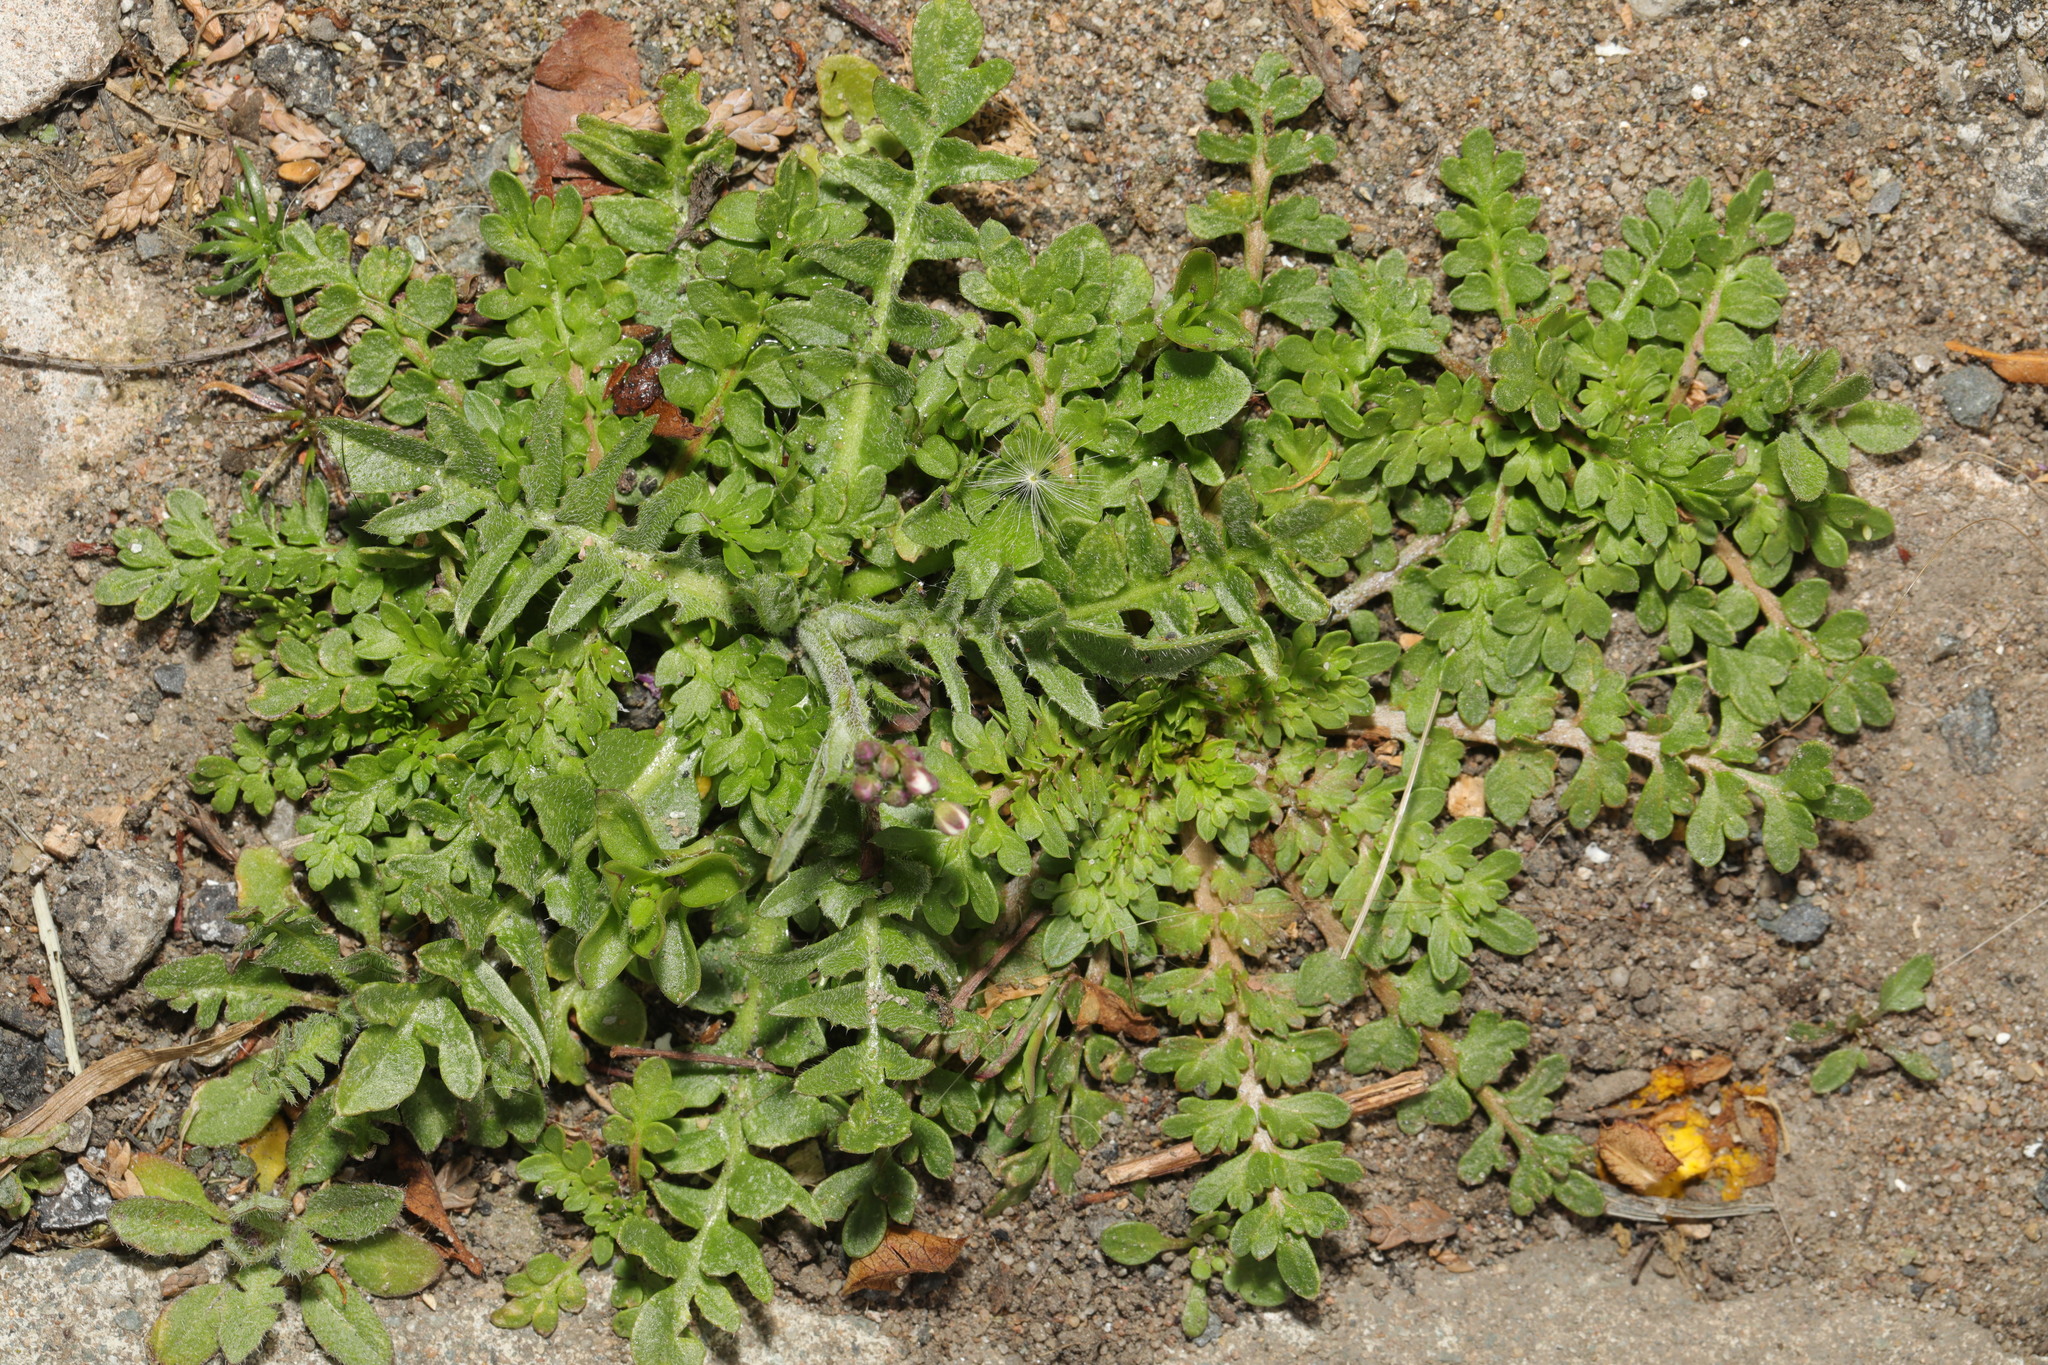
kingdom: Plantae
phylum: Tracheophyta
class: Magnoliopsida
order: Brassicales
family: Brassicaceae
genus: Lepidium
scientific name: Lepidium didymum
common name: Lesser swinecress
